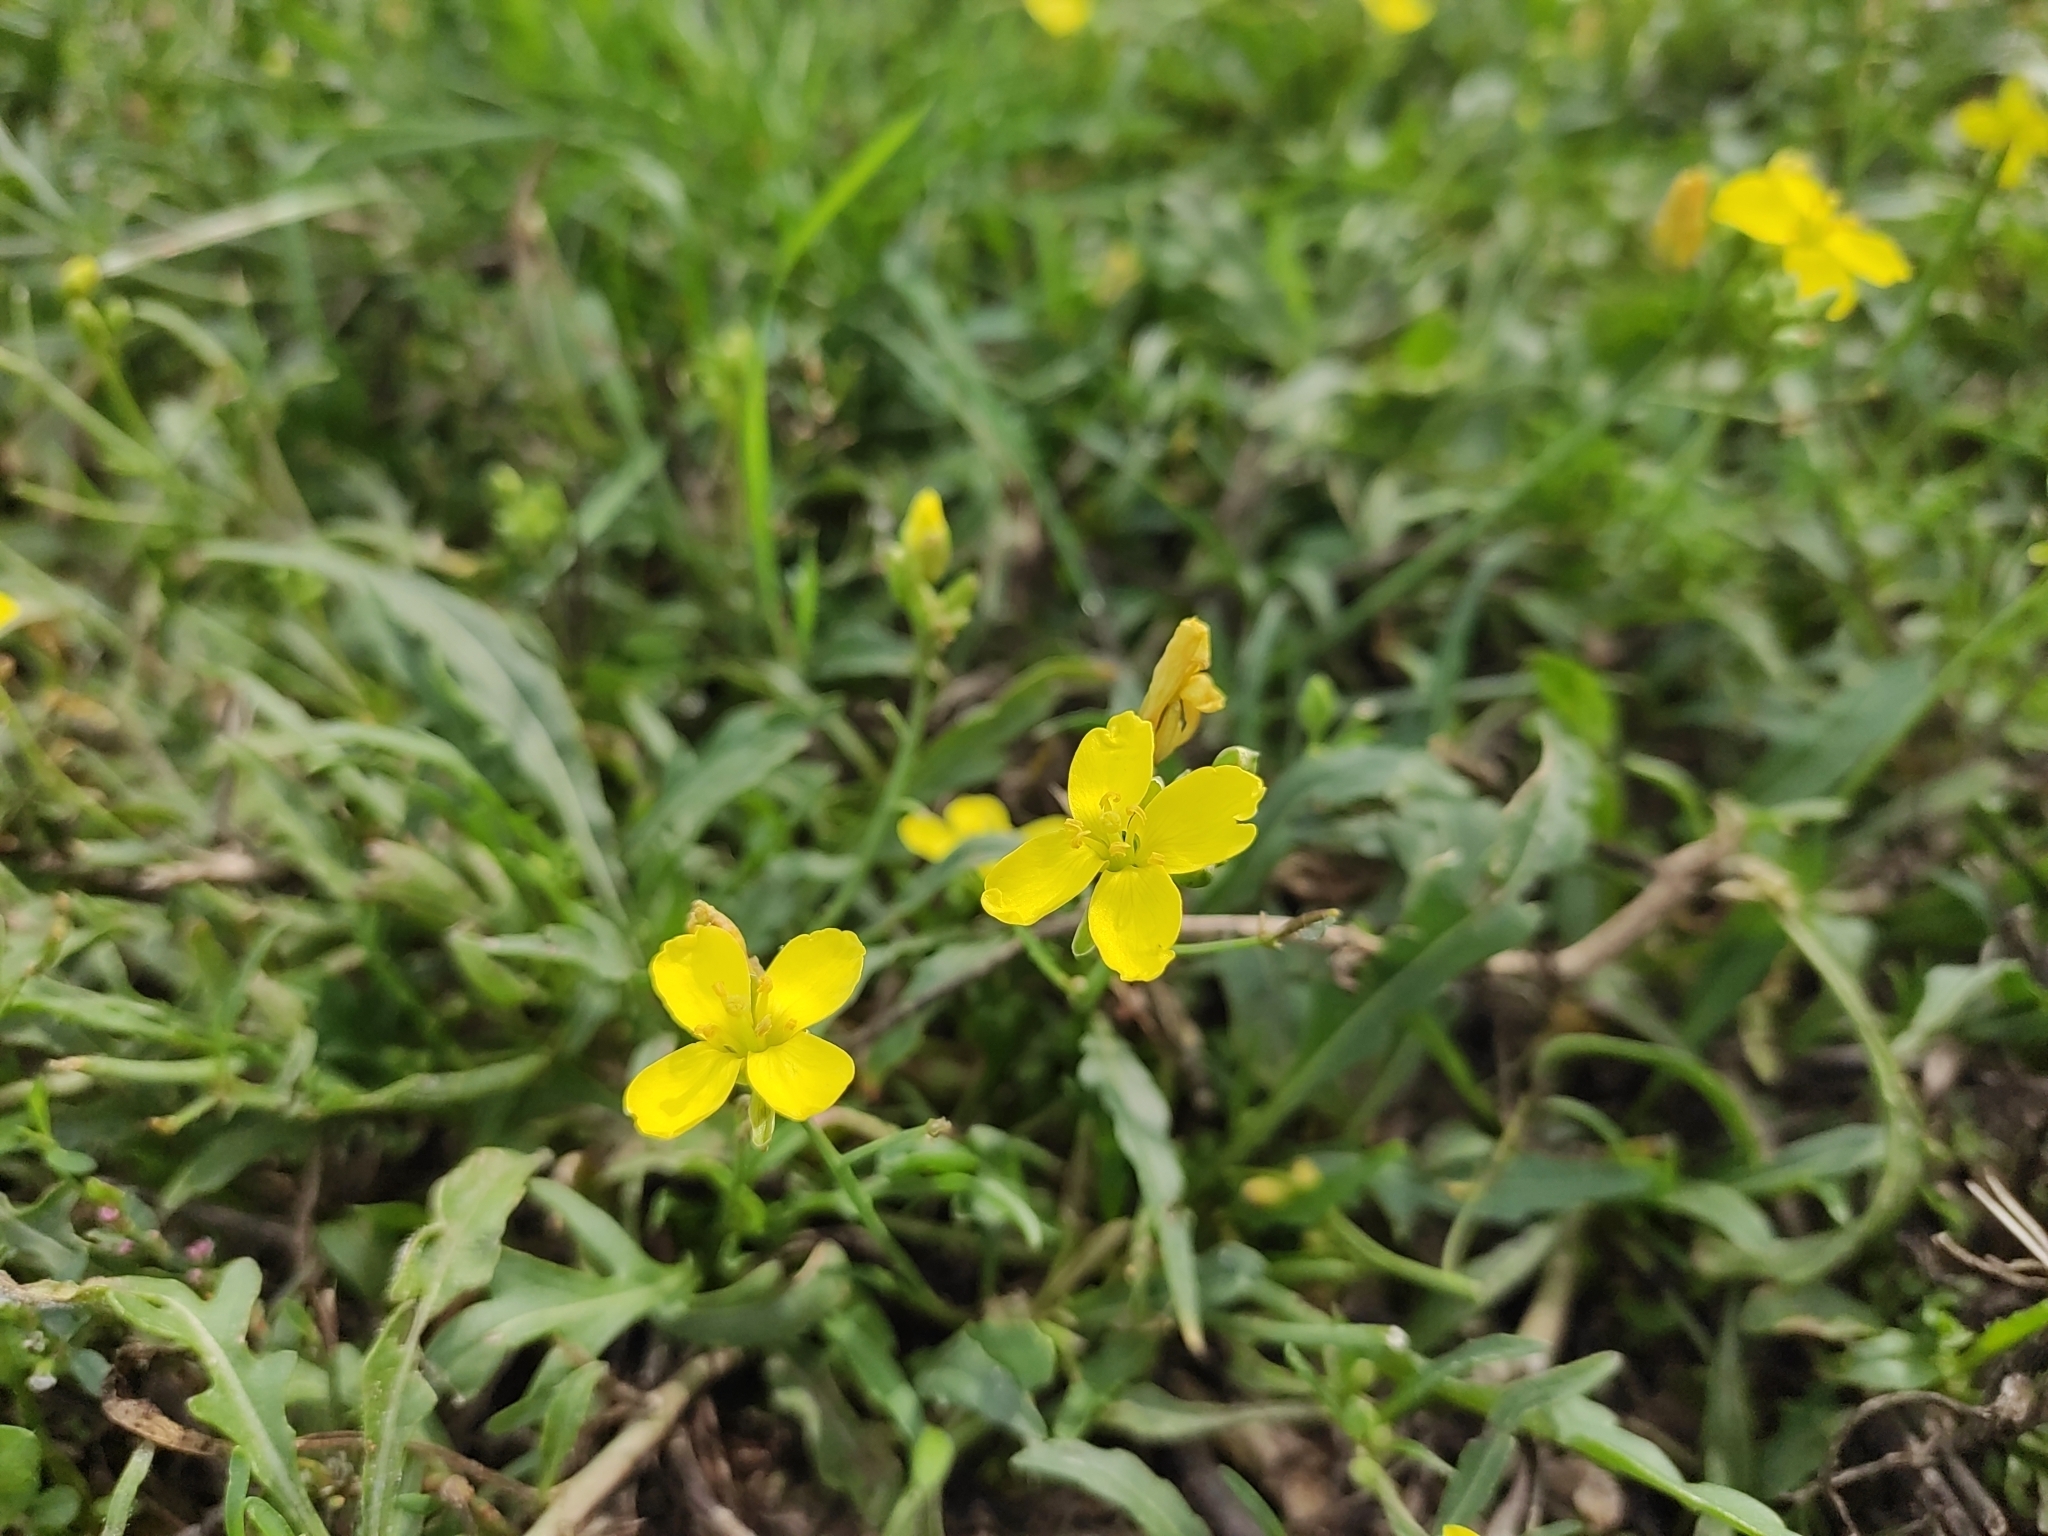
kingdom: Plantae
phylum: Tracheophyta
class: Magnoliopsida
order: Brassicales
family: Brassicaceae
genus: Diplotaxis
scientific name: Diplotaxis tenuifolia
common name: Perennial wall-rocket
